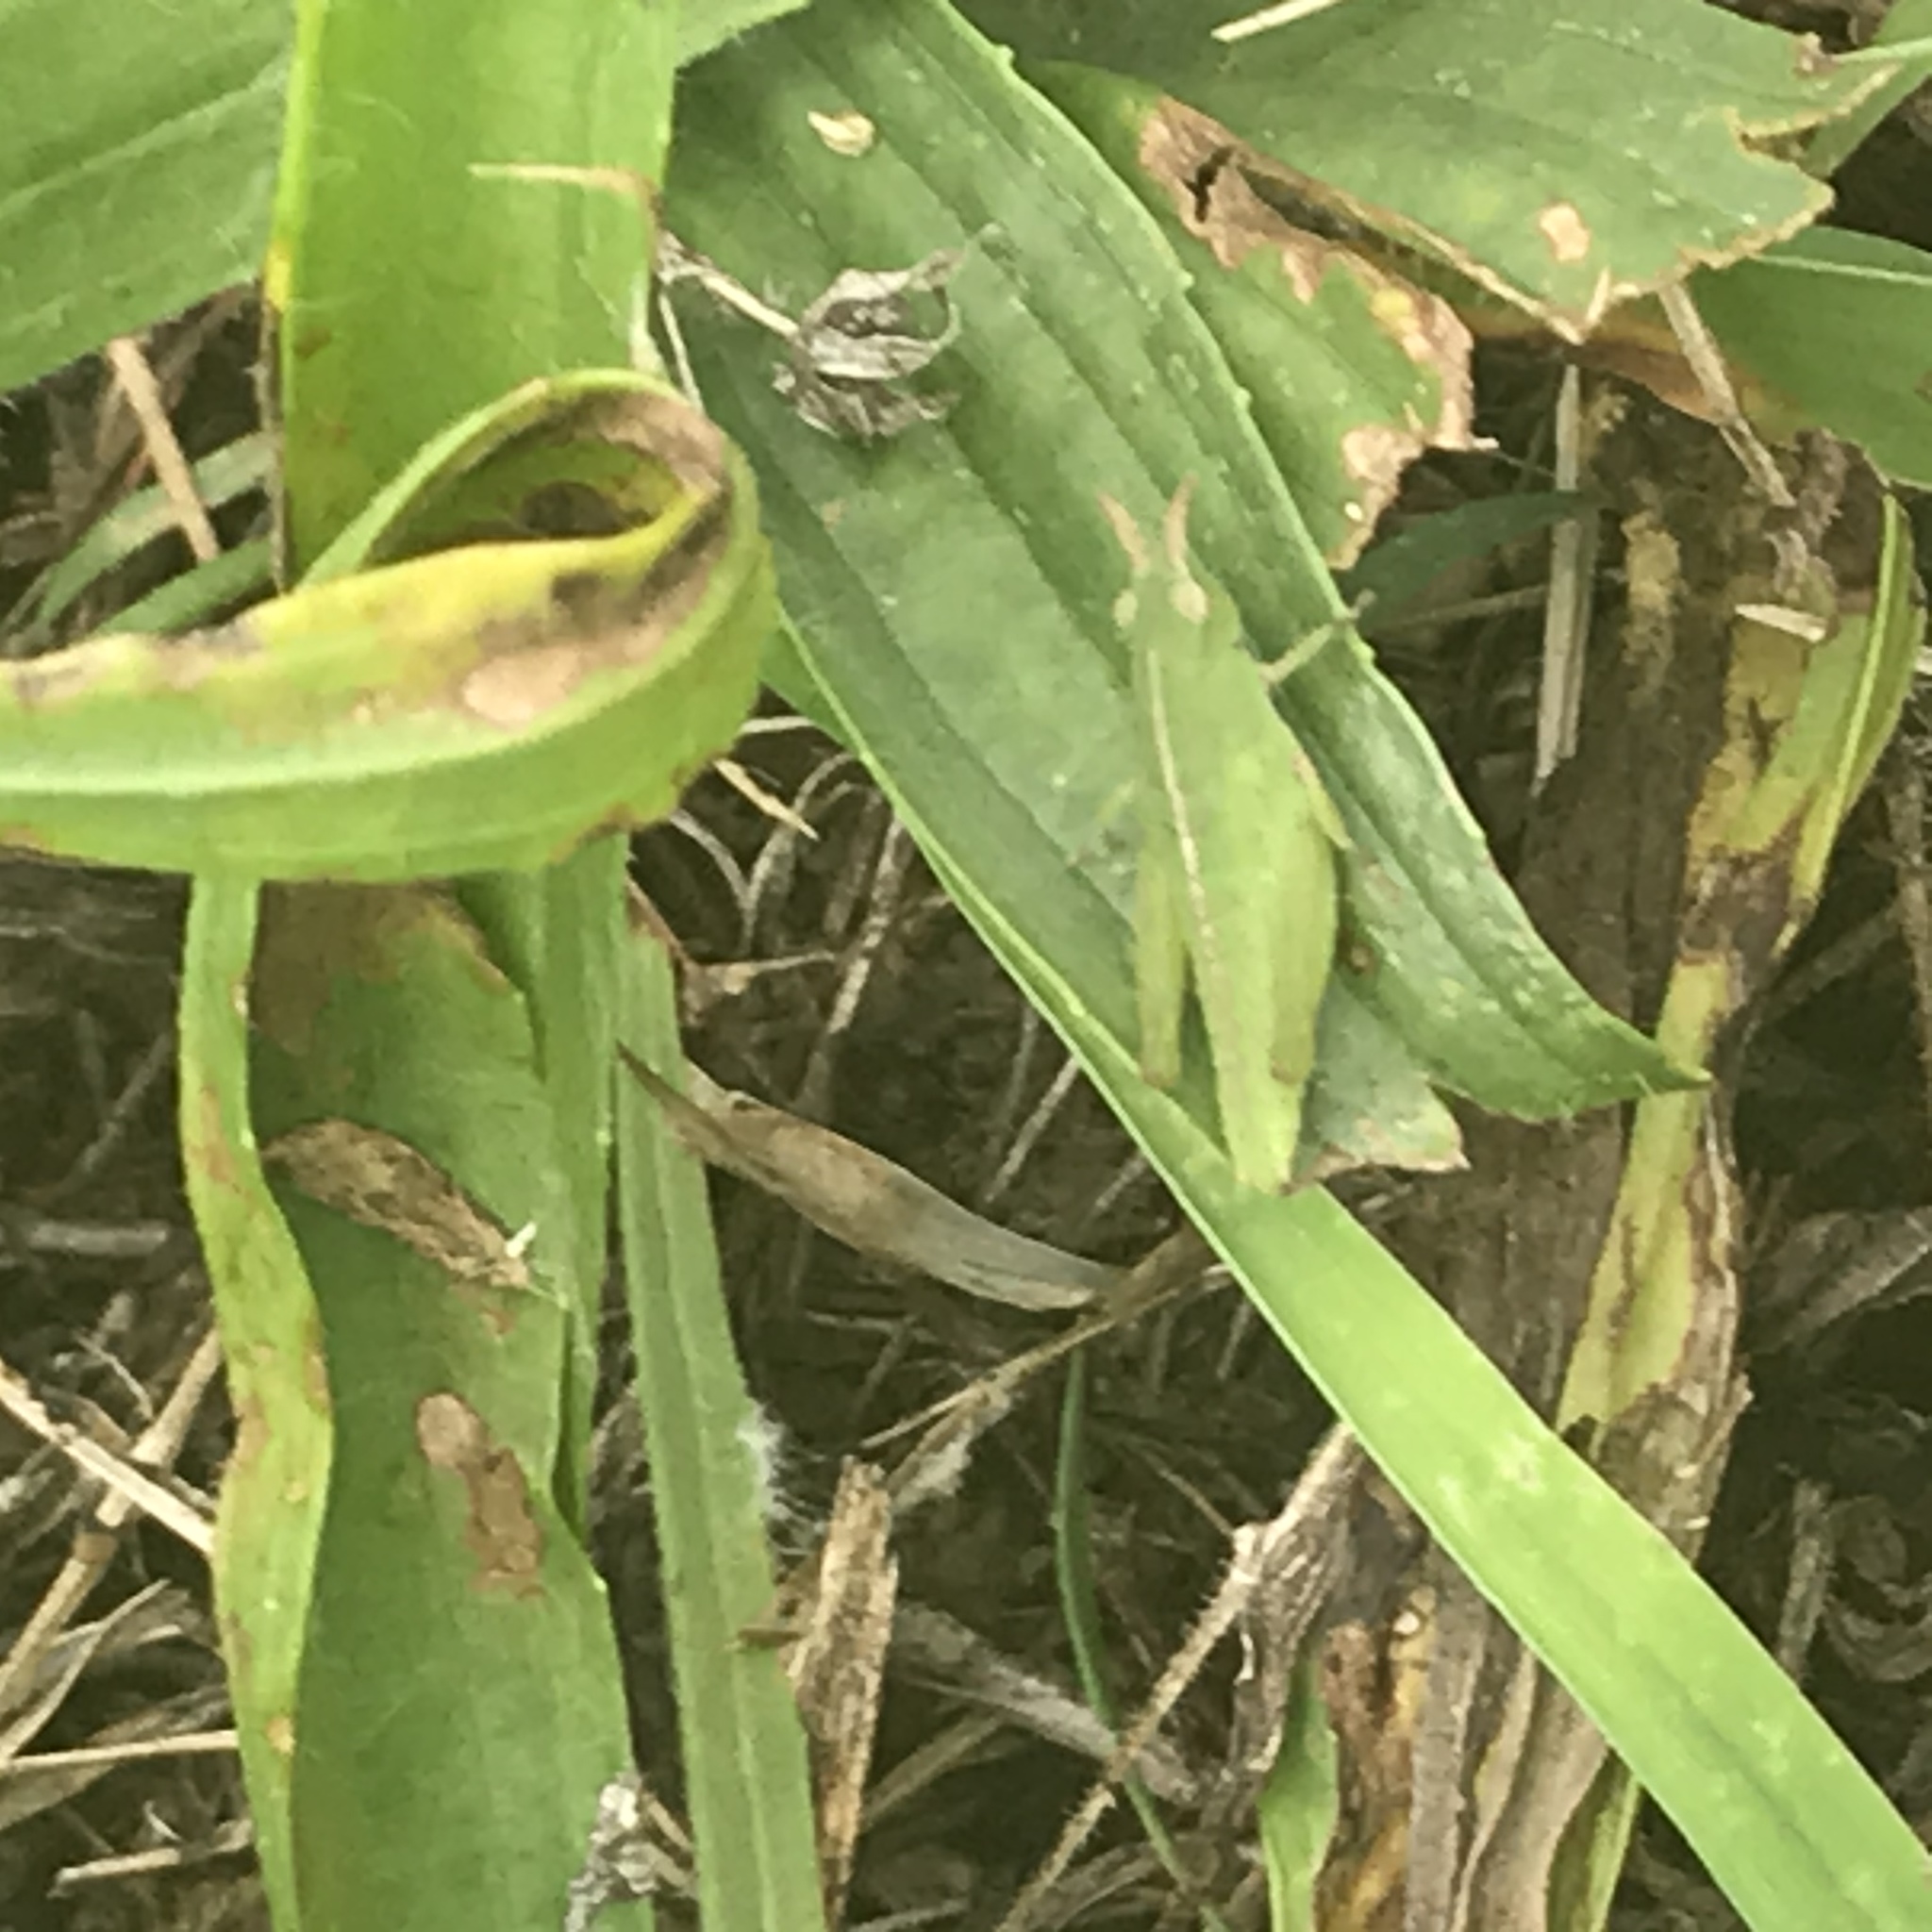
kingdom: Animalia
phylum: Arthropoda
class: Insecta
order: Orthoptera
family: Acrididae
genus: Chortophaga
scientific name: Chortophaga viridifasciata
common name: Green-striped grasshopper
